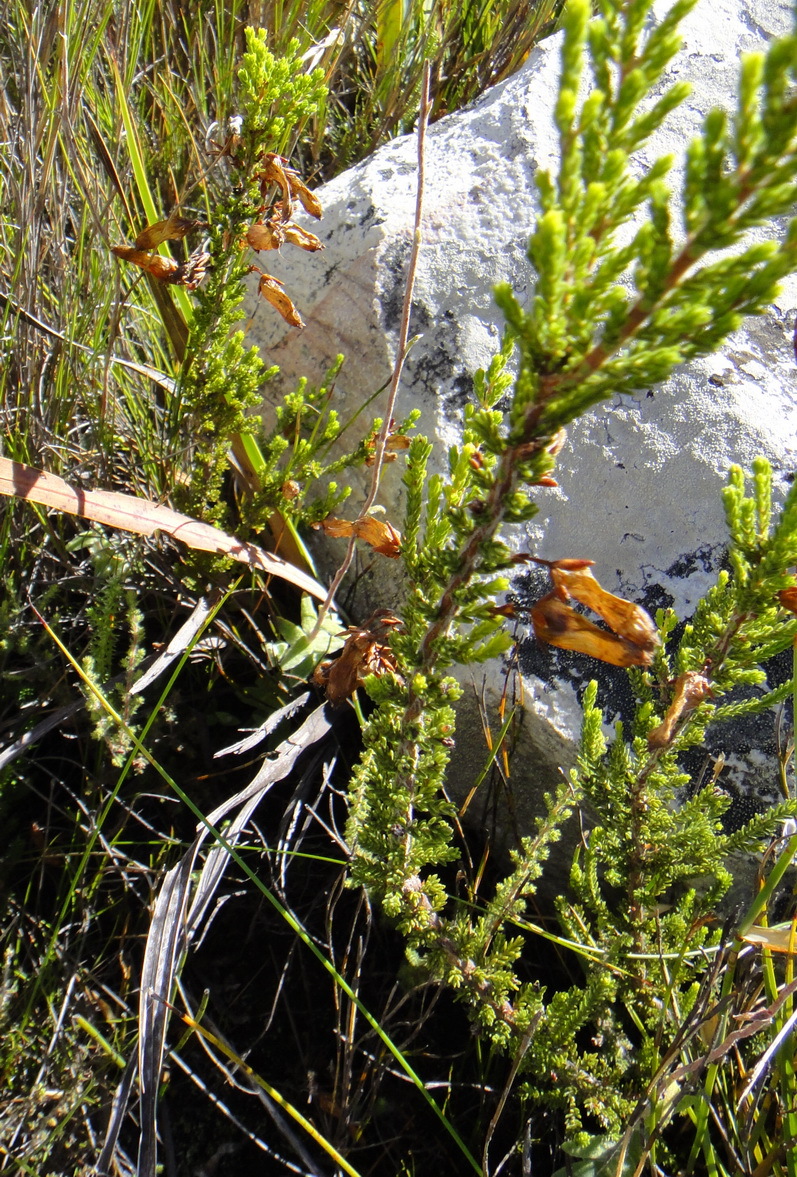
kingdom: Plantae
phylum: Tracheophyta
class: Magnoliopsida
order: Ericales
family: Ericaceae
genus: Erica
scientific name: Erica inordinata
